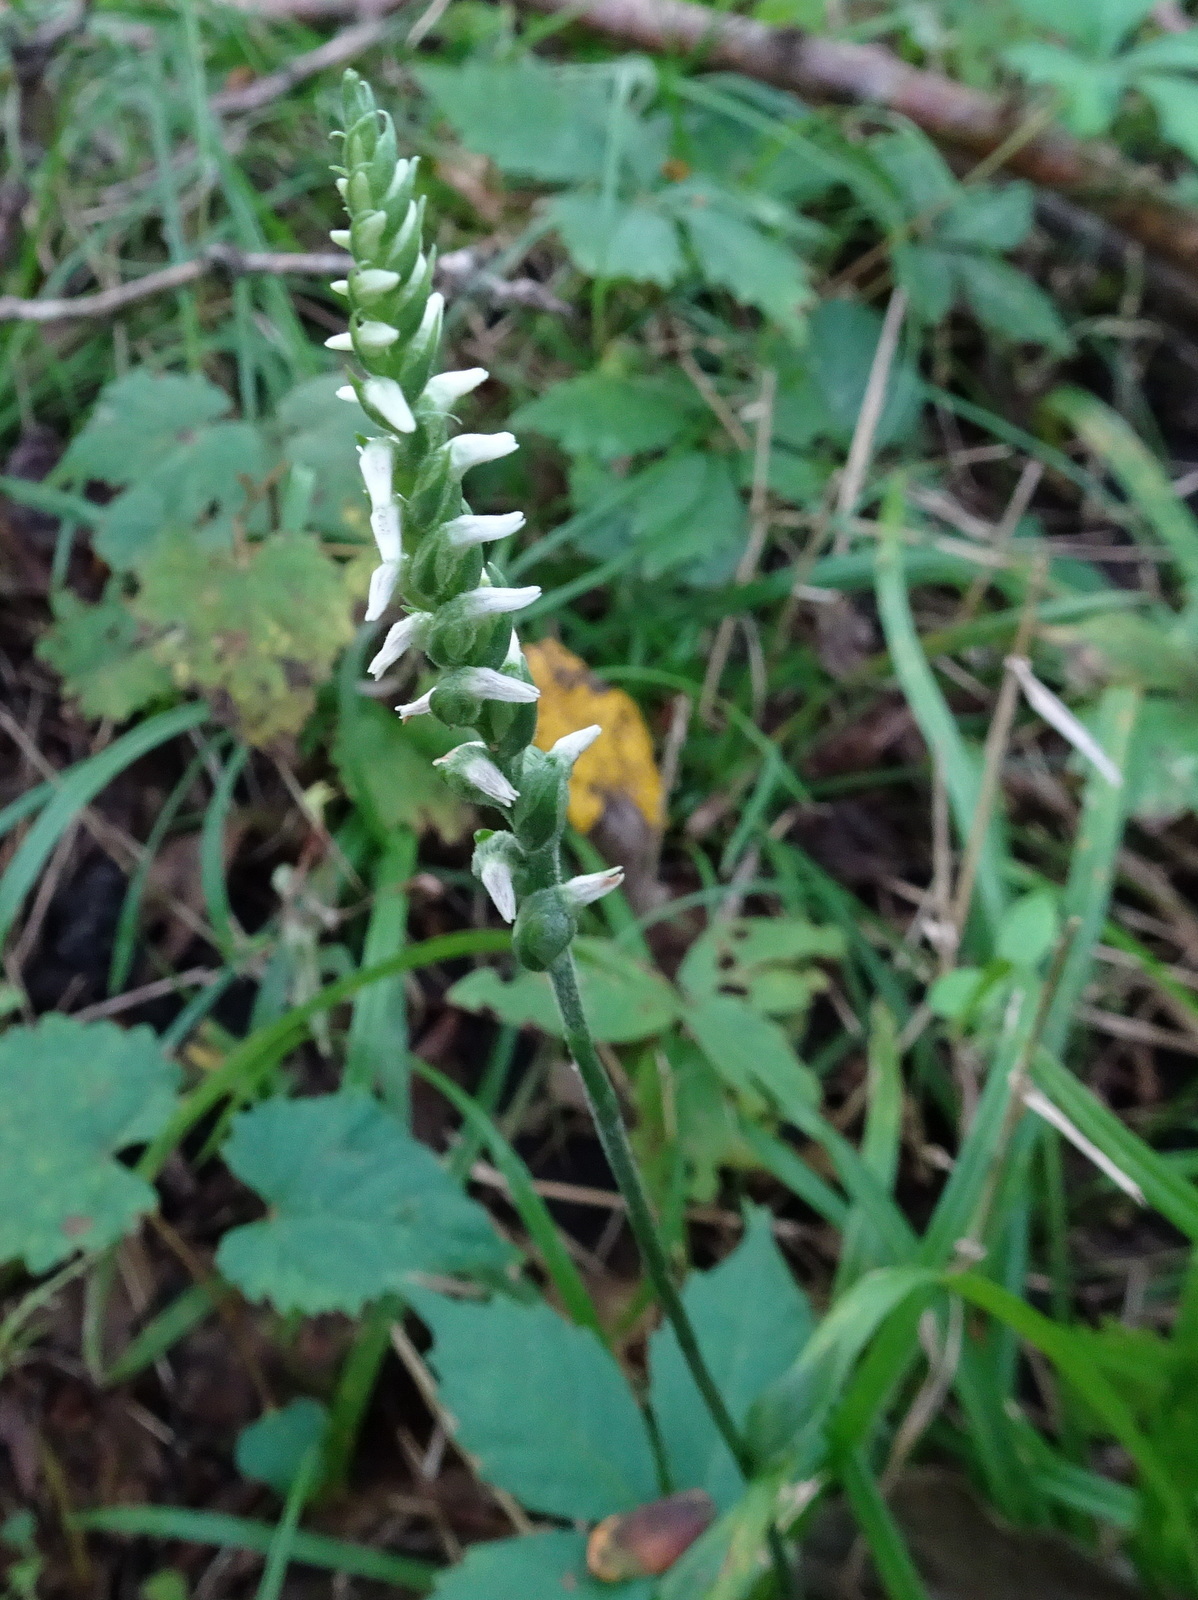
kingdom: Plantae
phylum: Tracheophyta
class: Liliopsida
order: Asparagales
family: Orchidaceae
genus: Spiranthes
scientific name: Spiranthes ovalis
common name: October ladies'-tresses
